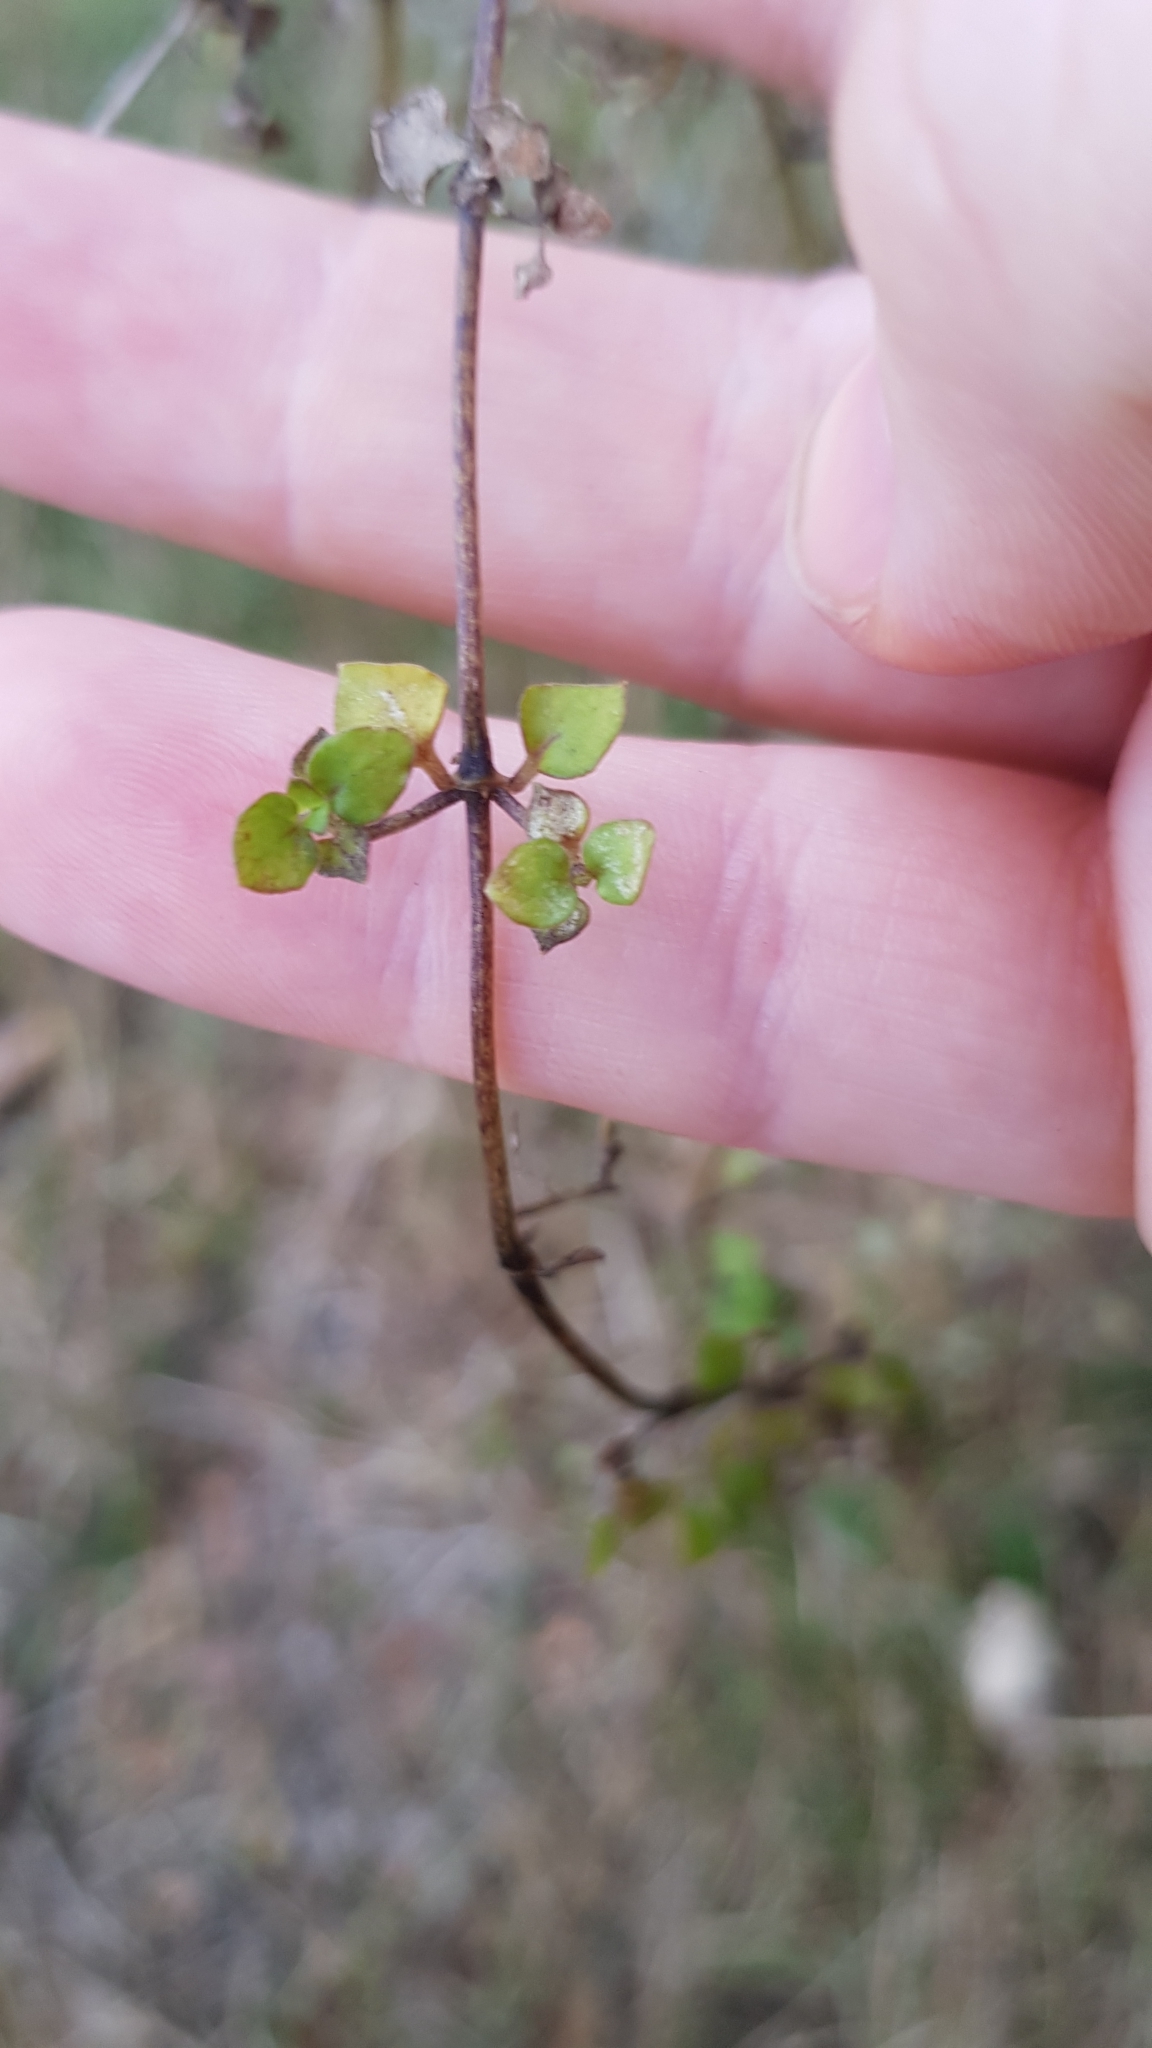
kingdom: Plantae
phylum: Tracheophyta
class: Magnoliopsida
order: Gentianales
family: Rubiaceae
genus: Nertera
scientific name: Nertera granadensis
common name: Beadplant
